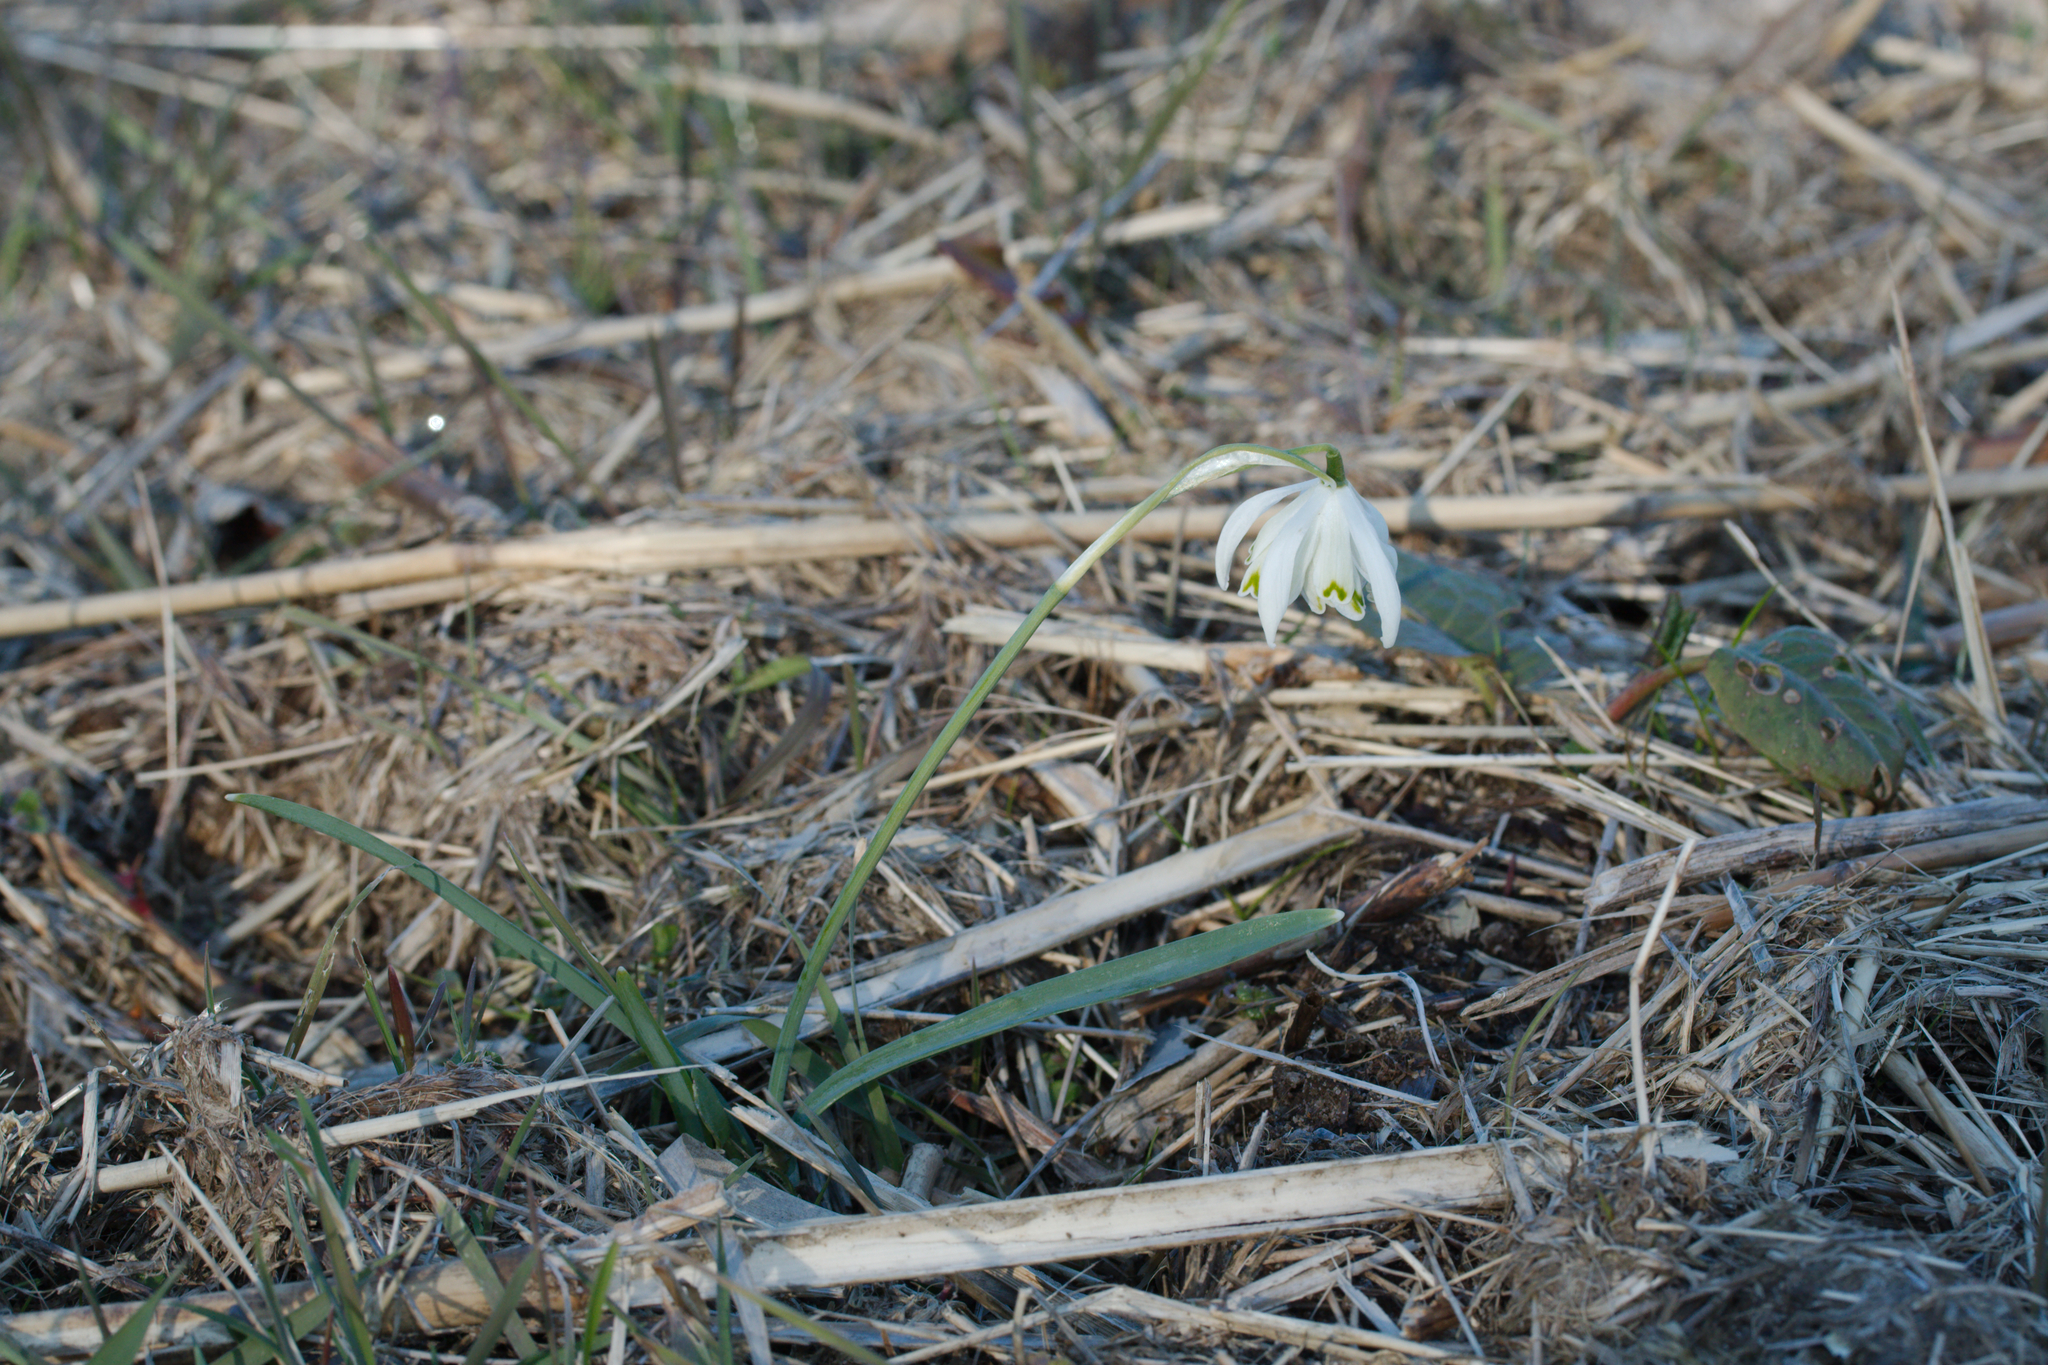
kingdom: Plantae
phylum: Tracheophyta
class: Liliopsida
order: Asparagales
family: Amaryllidaceae
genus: Galanthus
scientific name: Galanthus nivalis
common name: Snowdrop
